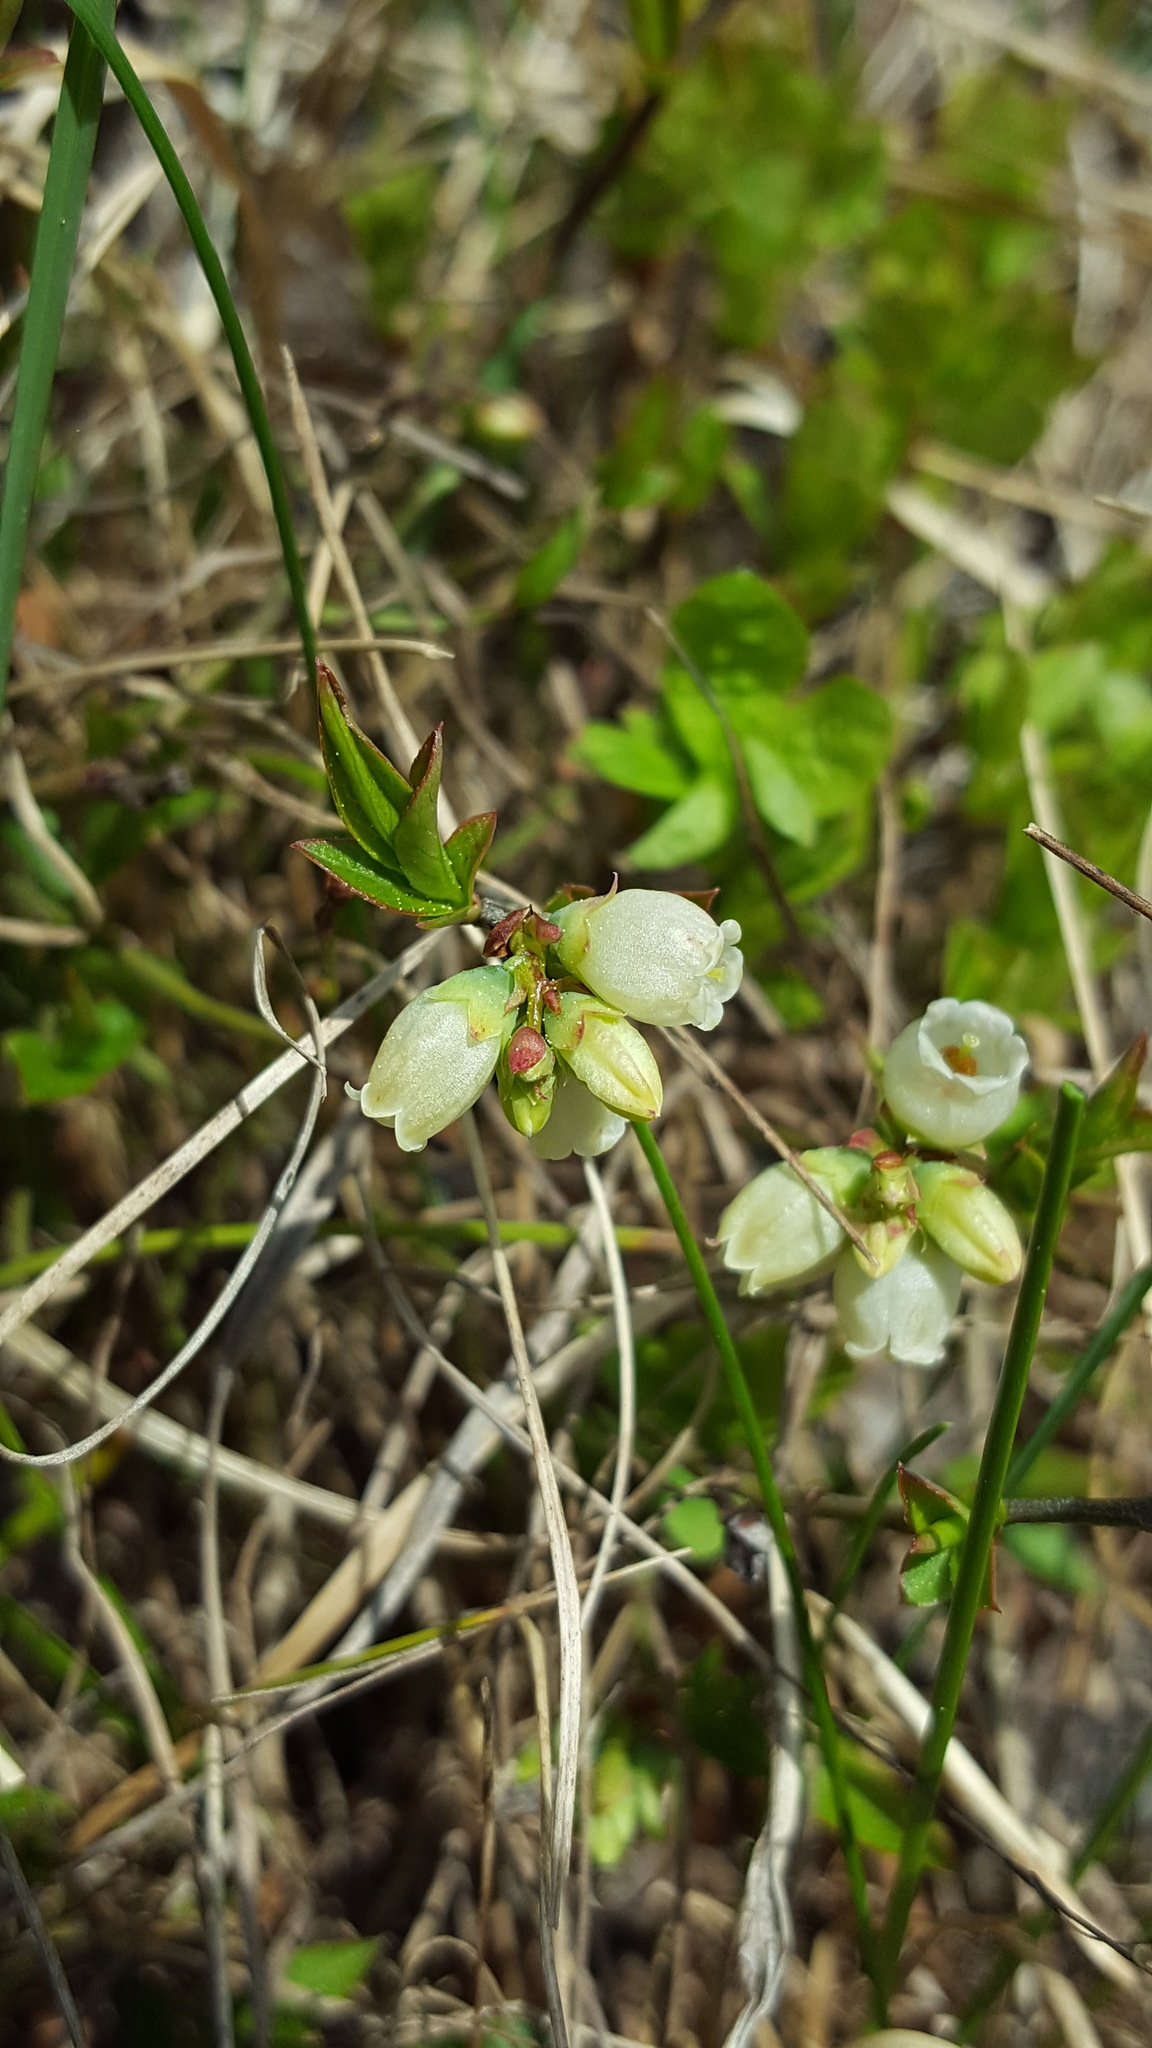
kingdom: Plantae
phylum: Tracheophyta
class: Magnoliopsida
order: Ericales
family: Ericaceae
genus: Vaccinium
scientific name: Vaccinium cespitosum
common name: Dwarf bilberry
